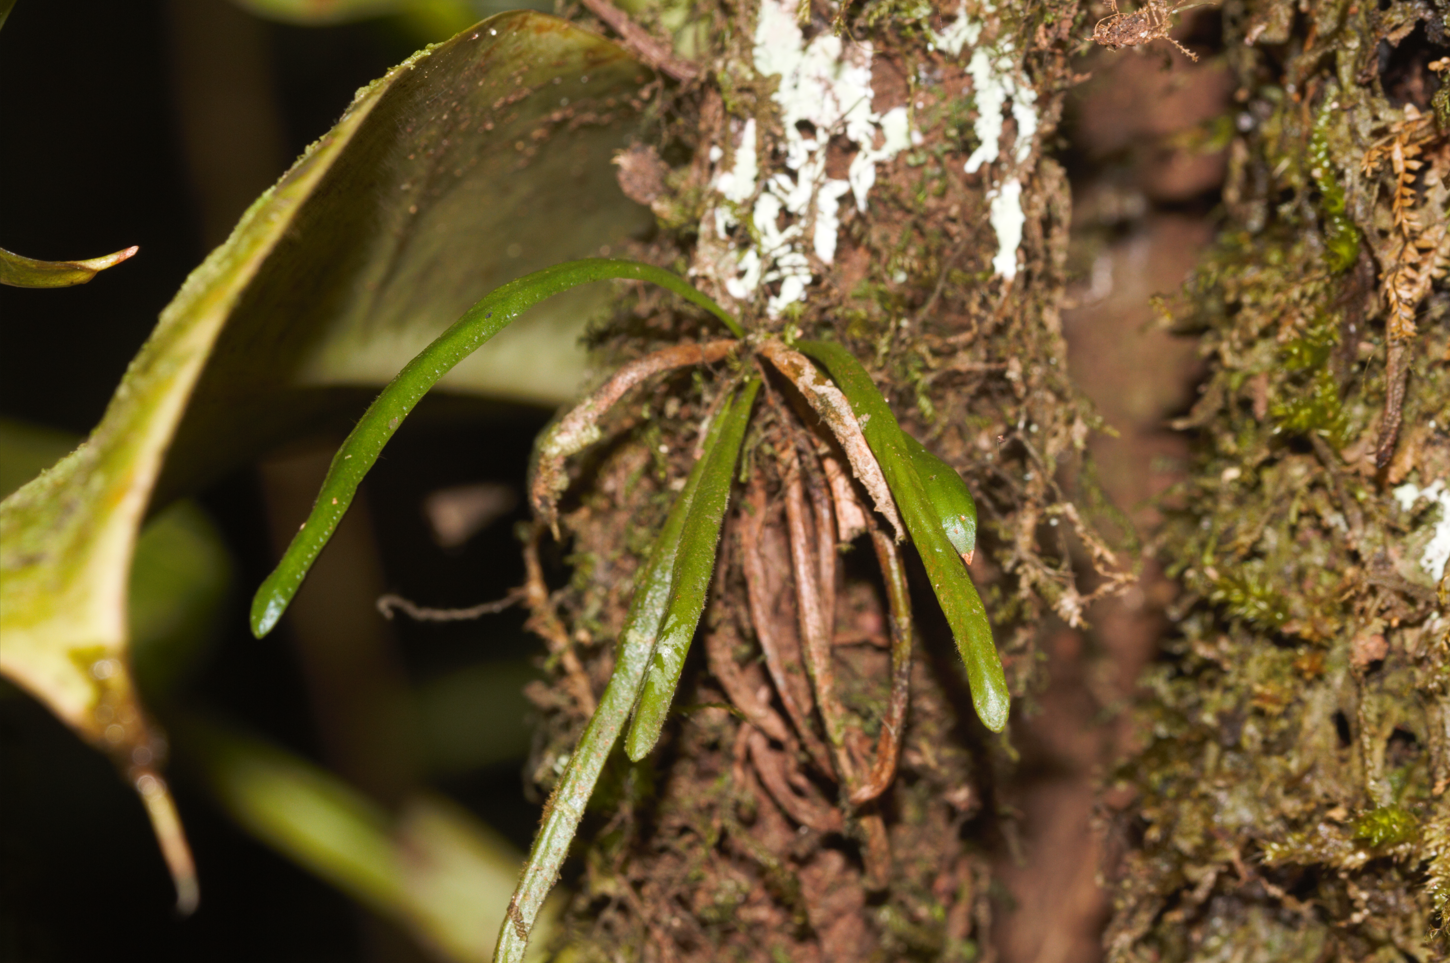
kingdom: Plantae
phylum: Tracheophyta
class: Polypodiopsida
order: Polypodiales
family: Polypodiaceae
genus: Cochlidium
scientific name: Cochlidium linearifolium
